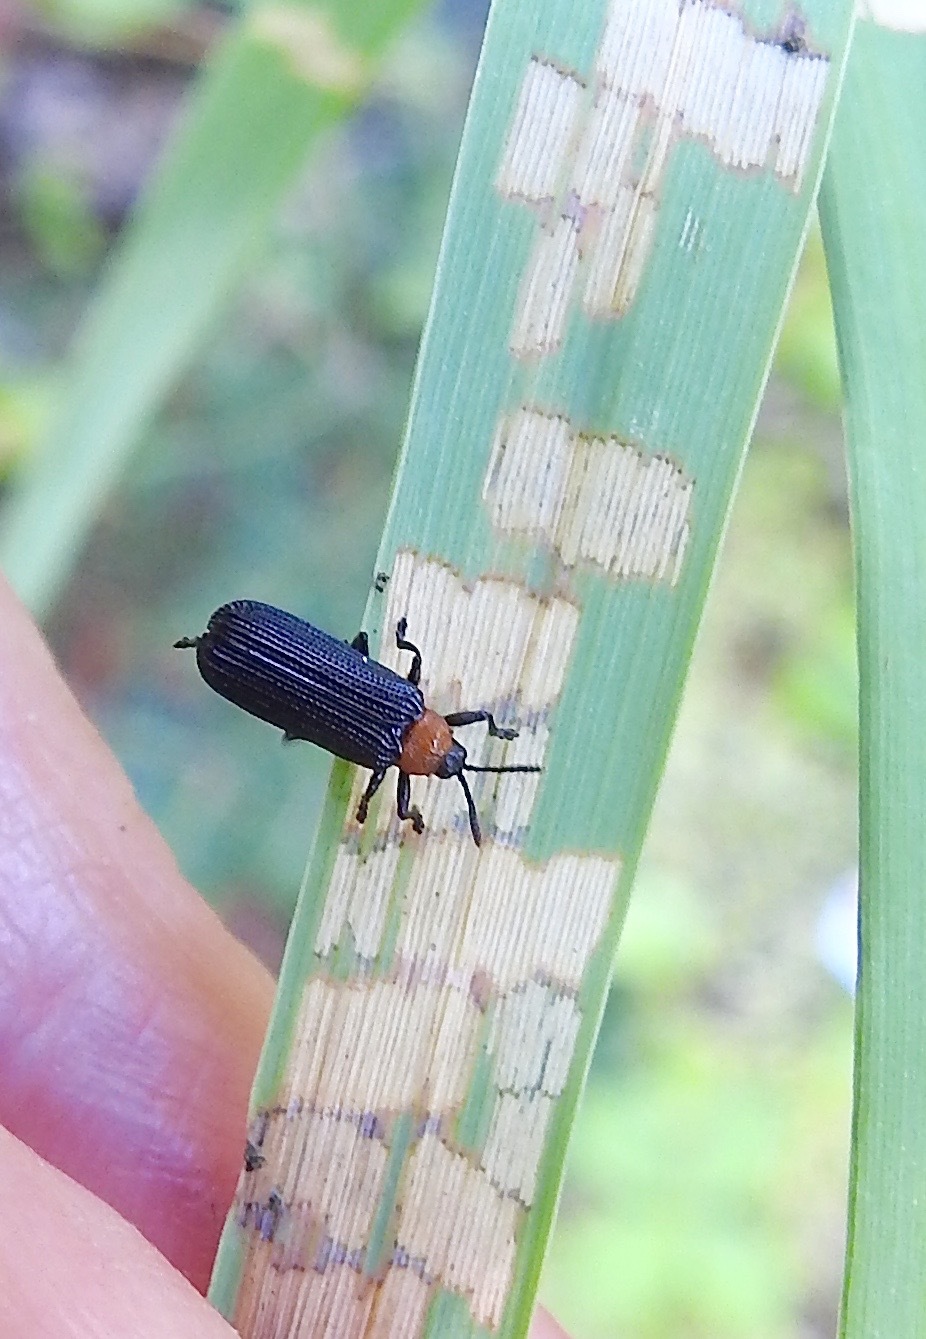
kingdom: Animalia
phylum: Arthropoda
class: Insecta
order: Coleoptera
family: Chrysomelidae
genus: Chalepus
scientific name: Chalepus walshii
